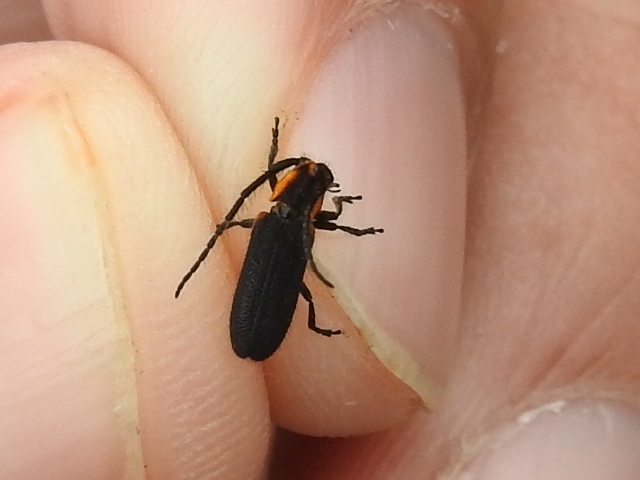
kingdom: Animalia
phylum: Arthropoda
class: Insecta
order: Coleoptera
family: Cerambycidae
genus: Hemierana
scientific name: Hemierana marginata
